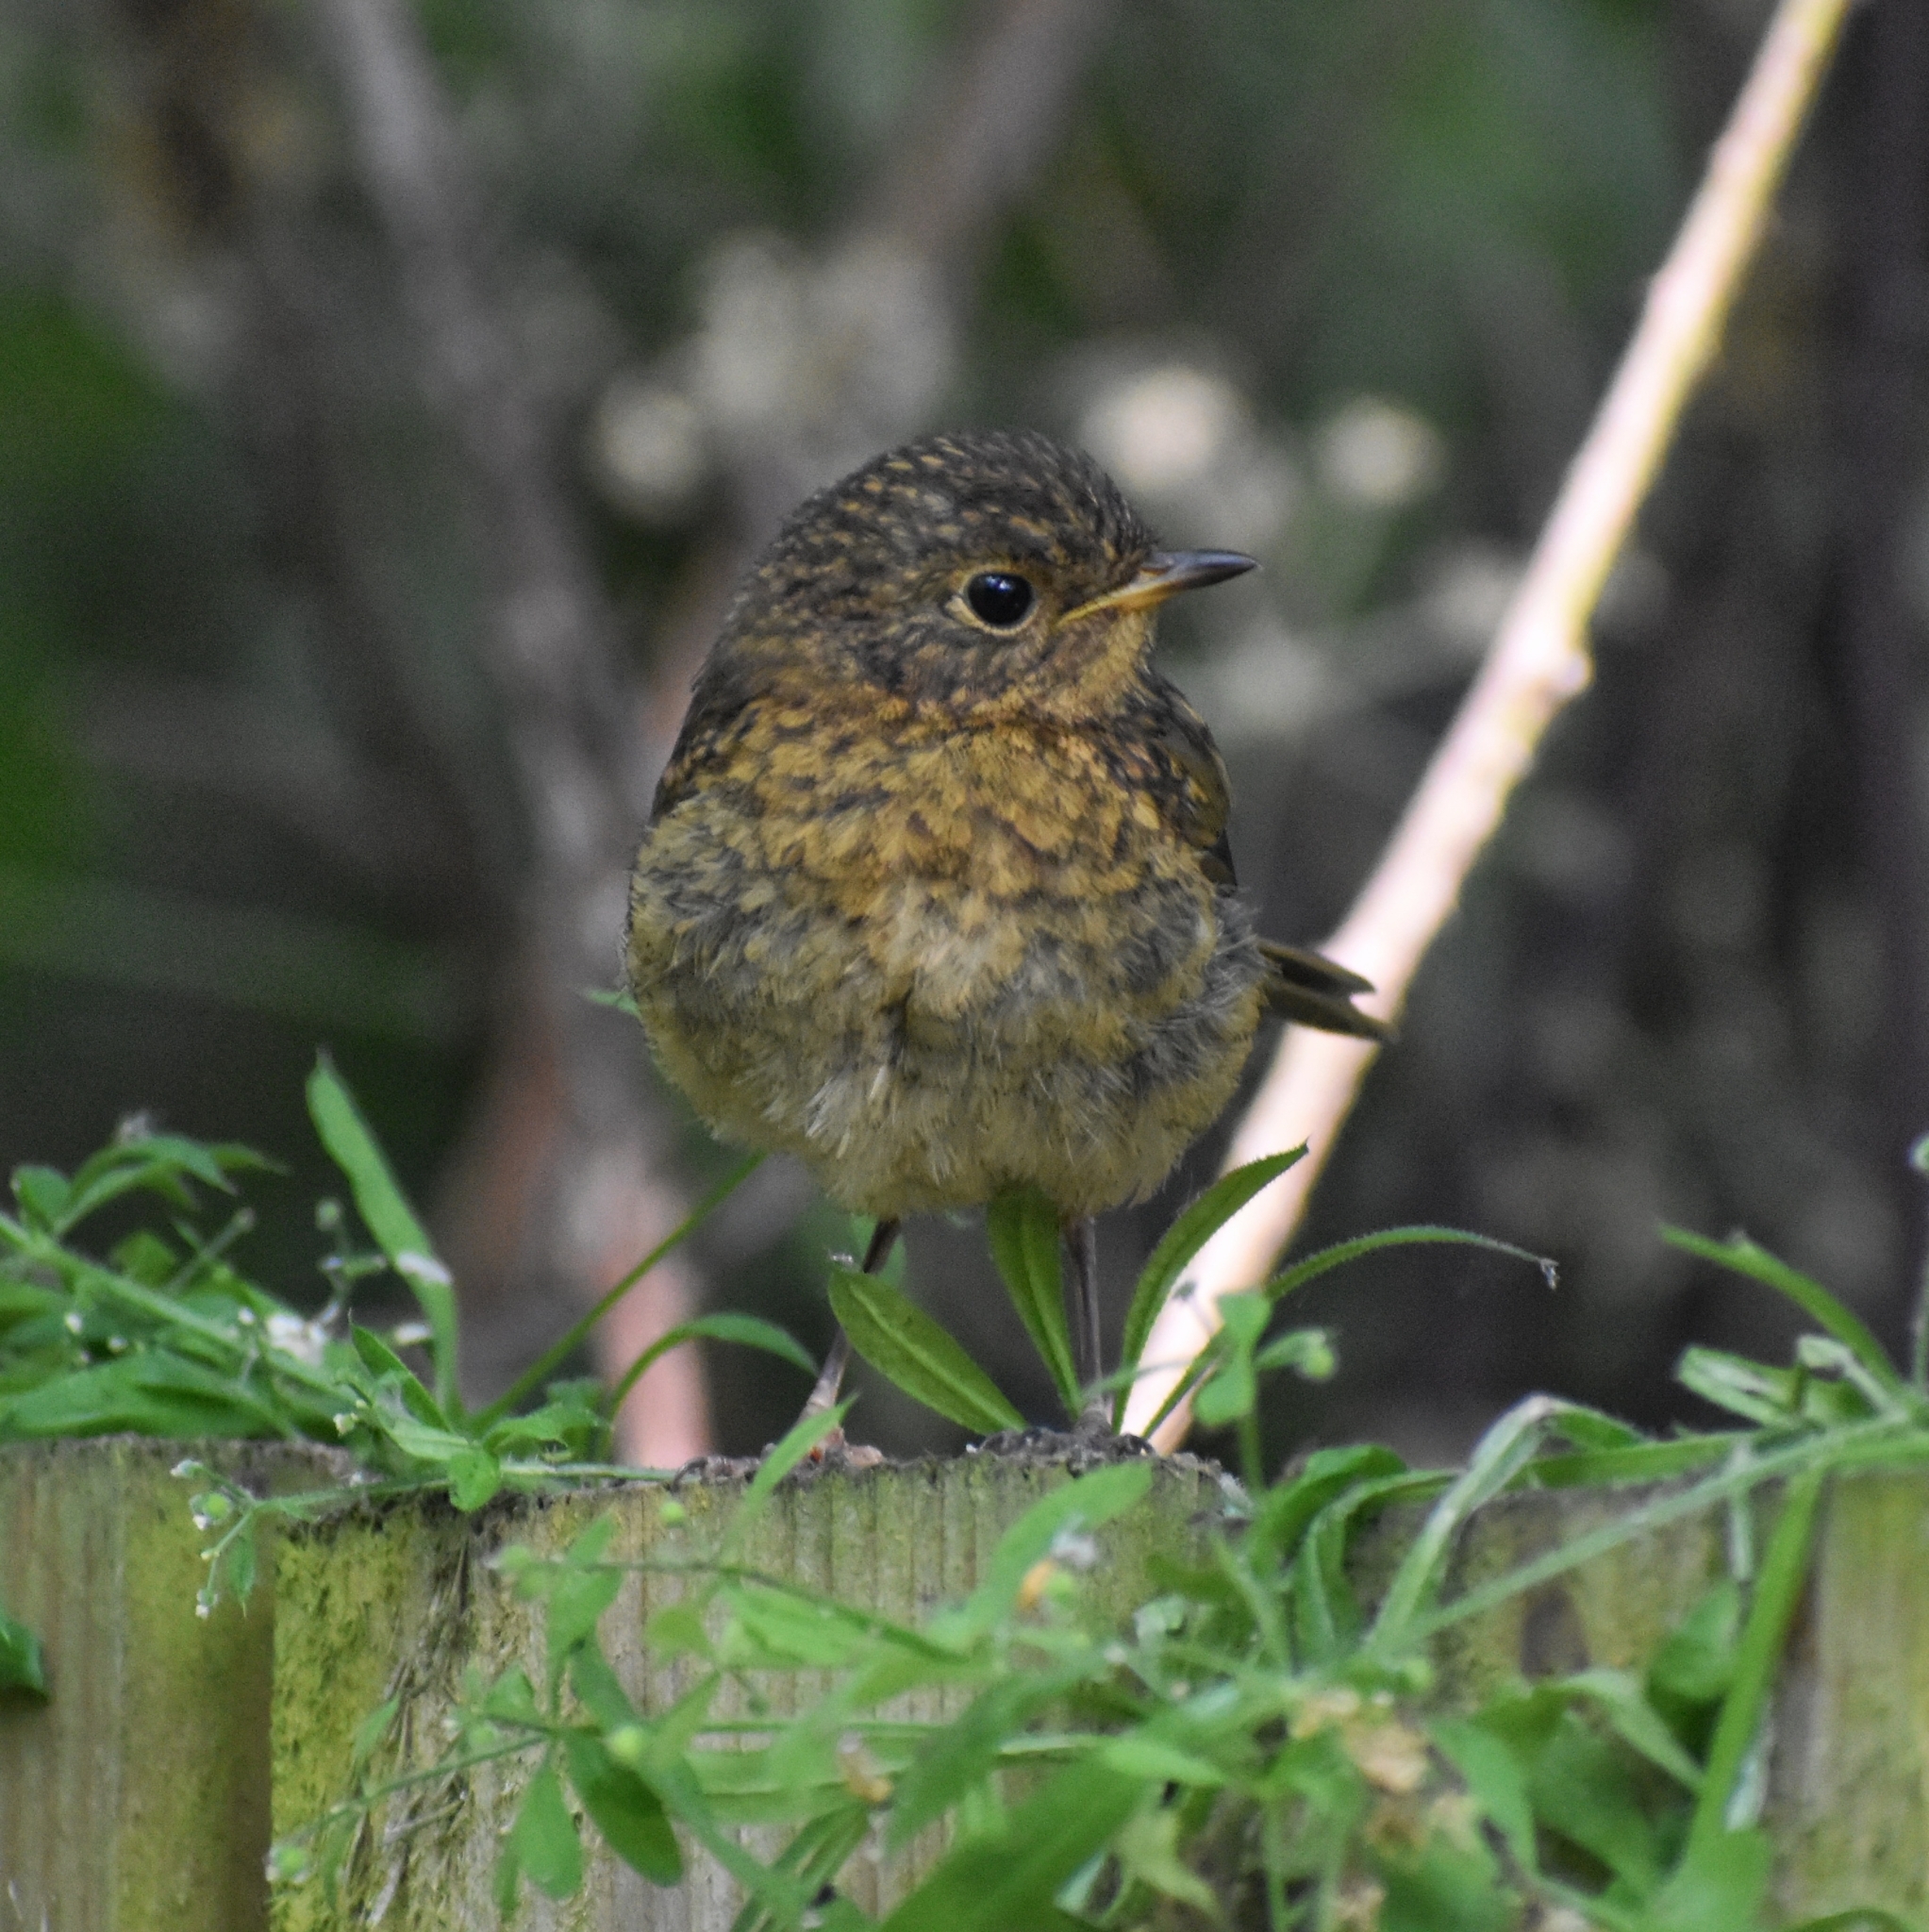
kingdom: Animalia
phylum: Chordata
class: Aves
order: Passeriformes
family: Muscicapidae
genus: Erithacus
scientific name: Erithacus rubecula
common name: European robin
